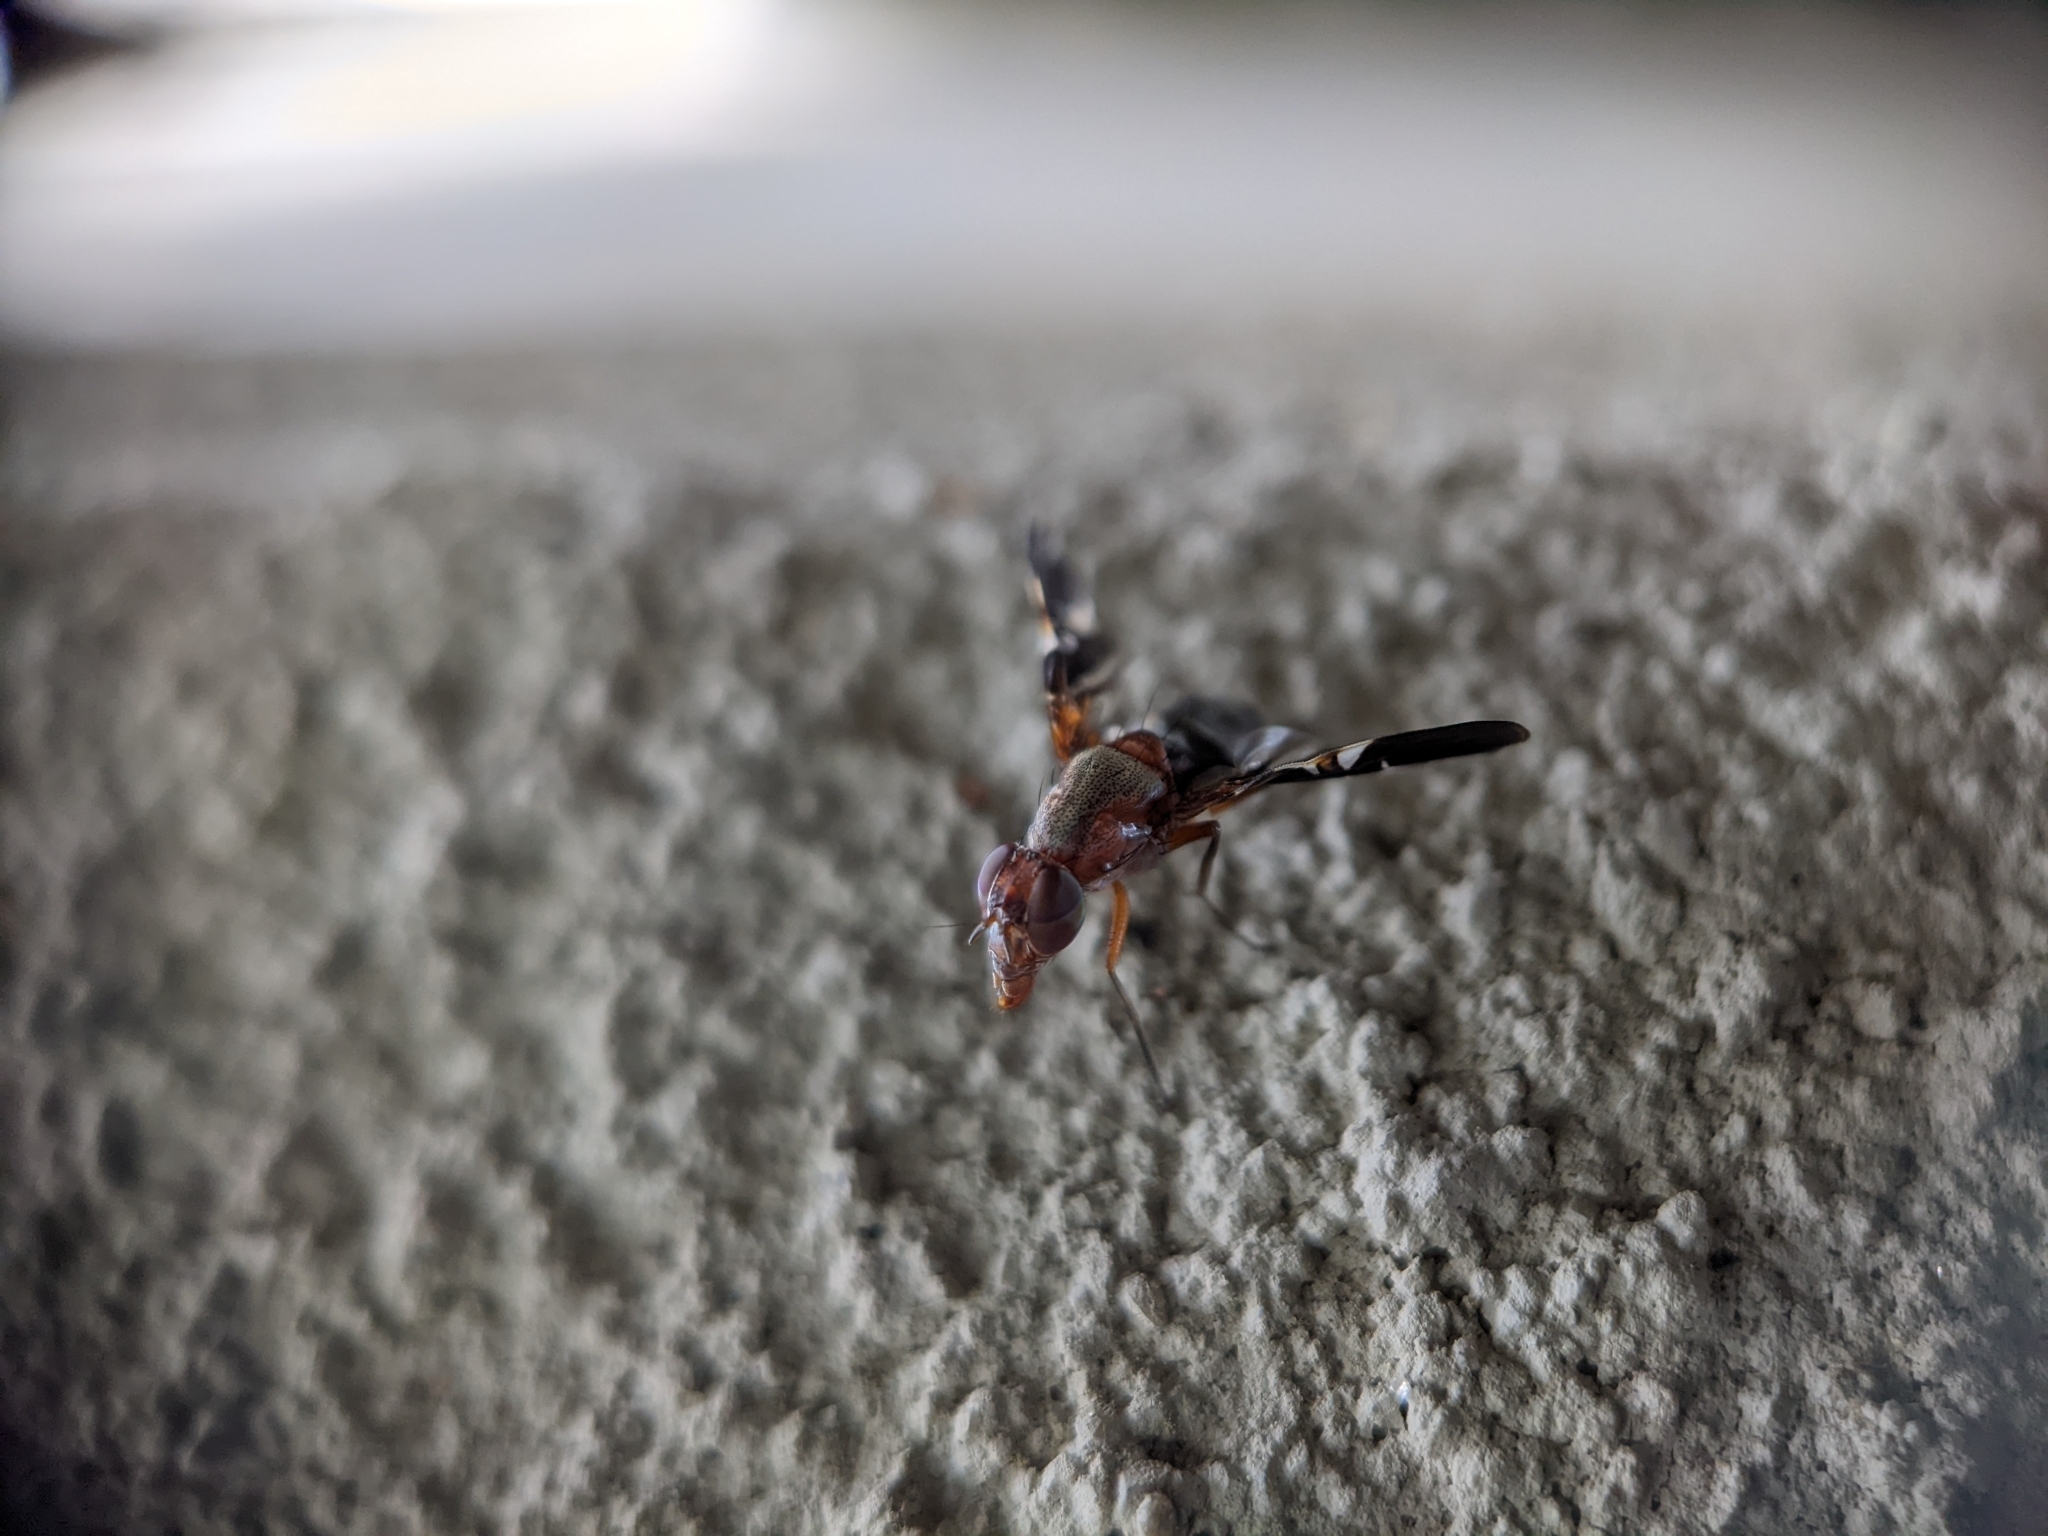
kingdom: Animalia
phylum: Arthropoda
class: Insecta
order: Diptera
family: Ulidiidae
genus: Delphinia
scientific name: Delphinia picta
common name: Common picture-winged fly
